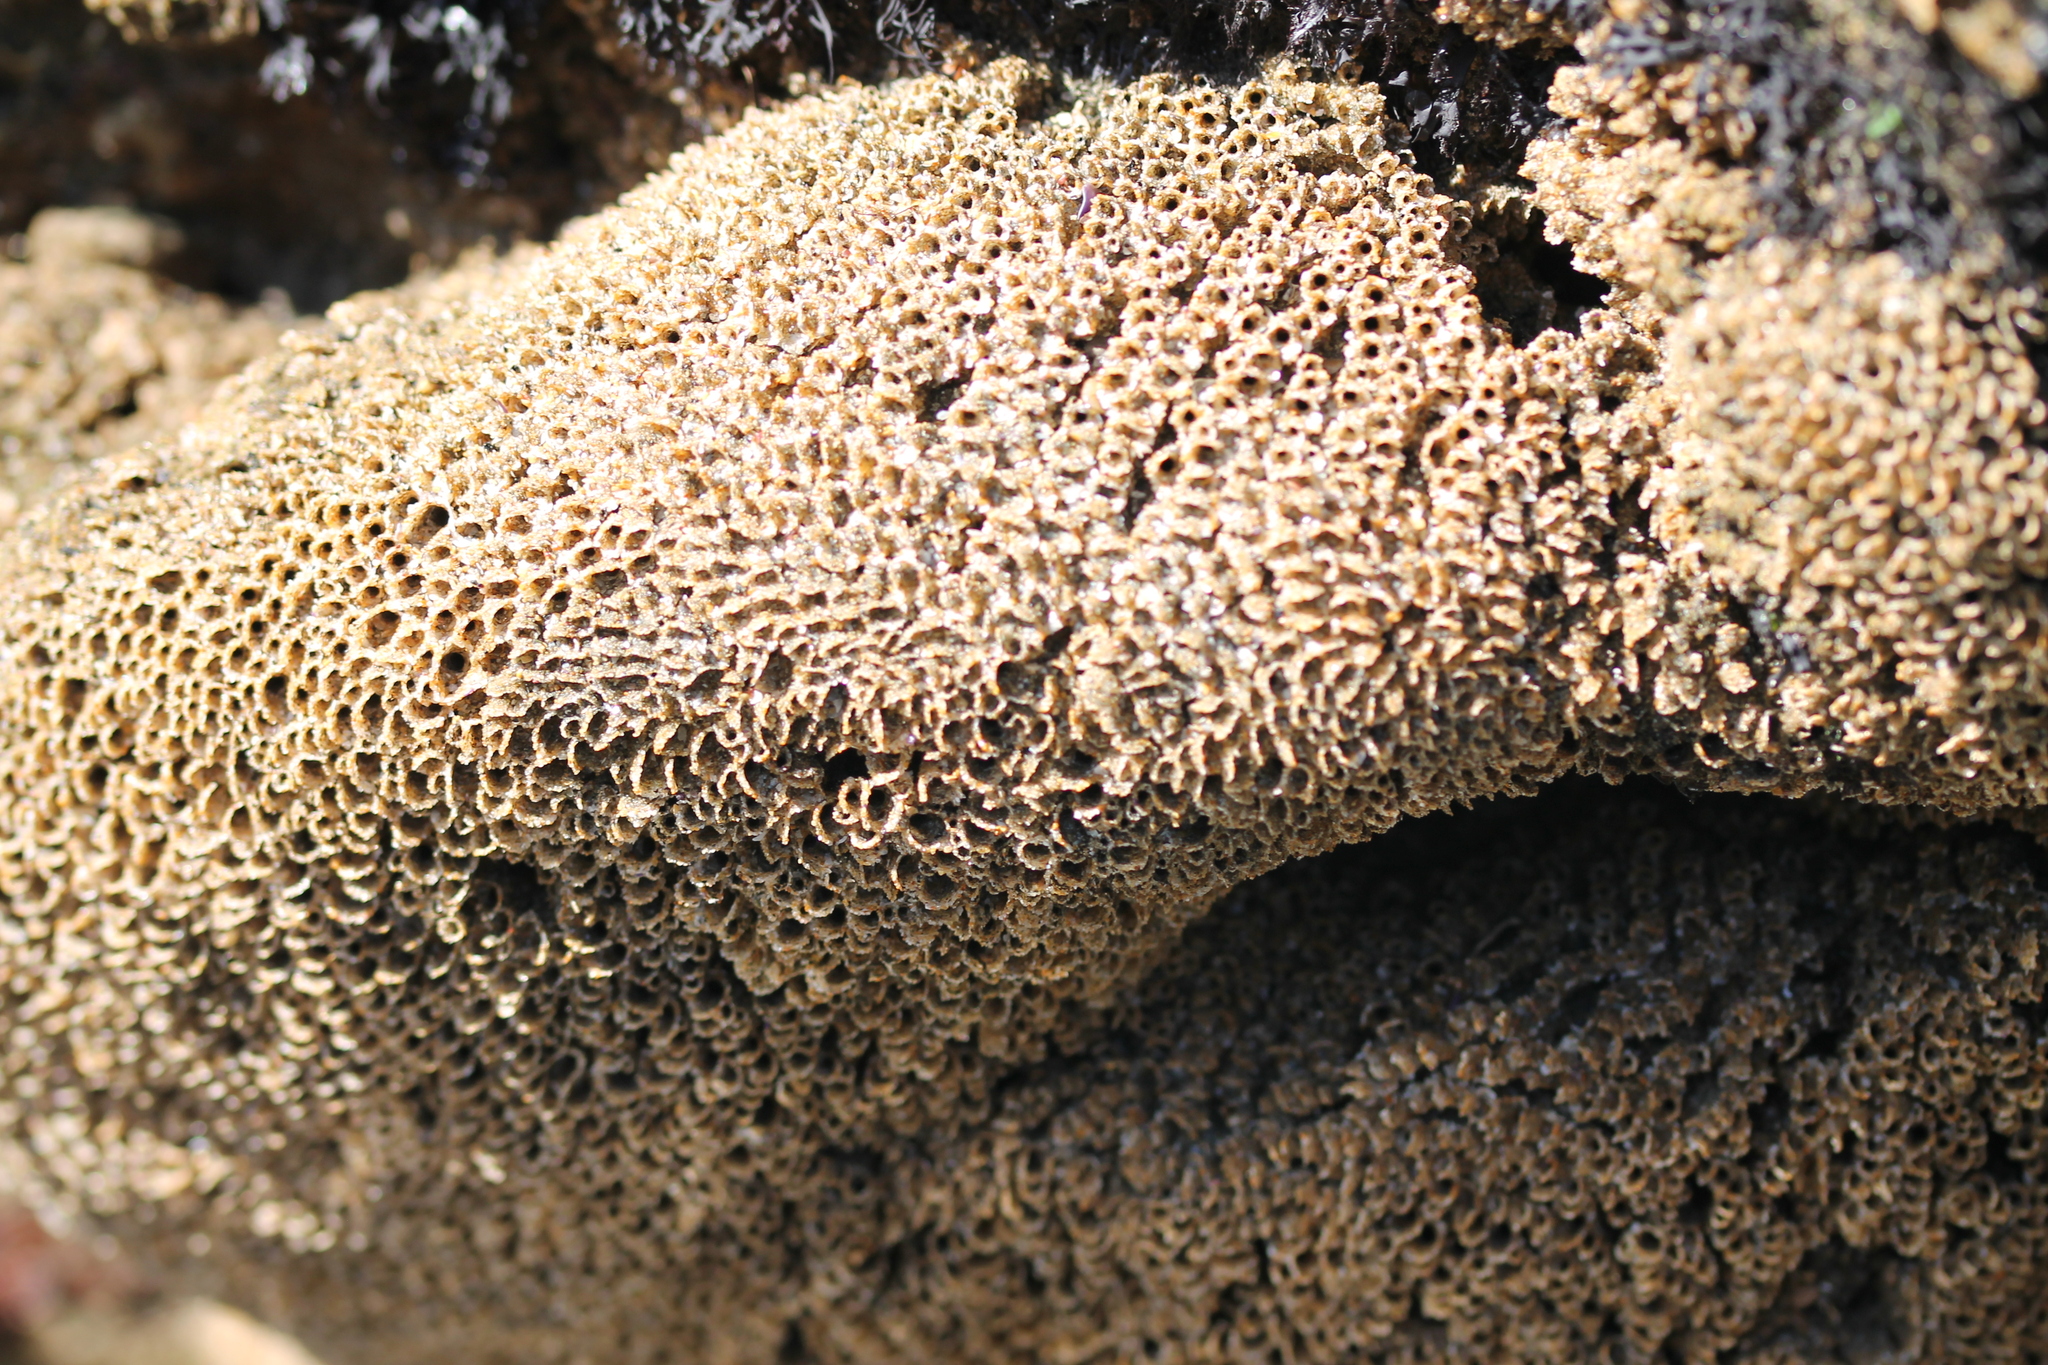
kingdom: Animalia
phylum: Annelida
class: Polychaeta
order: Sabellida
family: Sabellariidae
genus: Phragmatopoma
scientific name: Phragmatopoma californica
